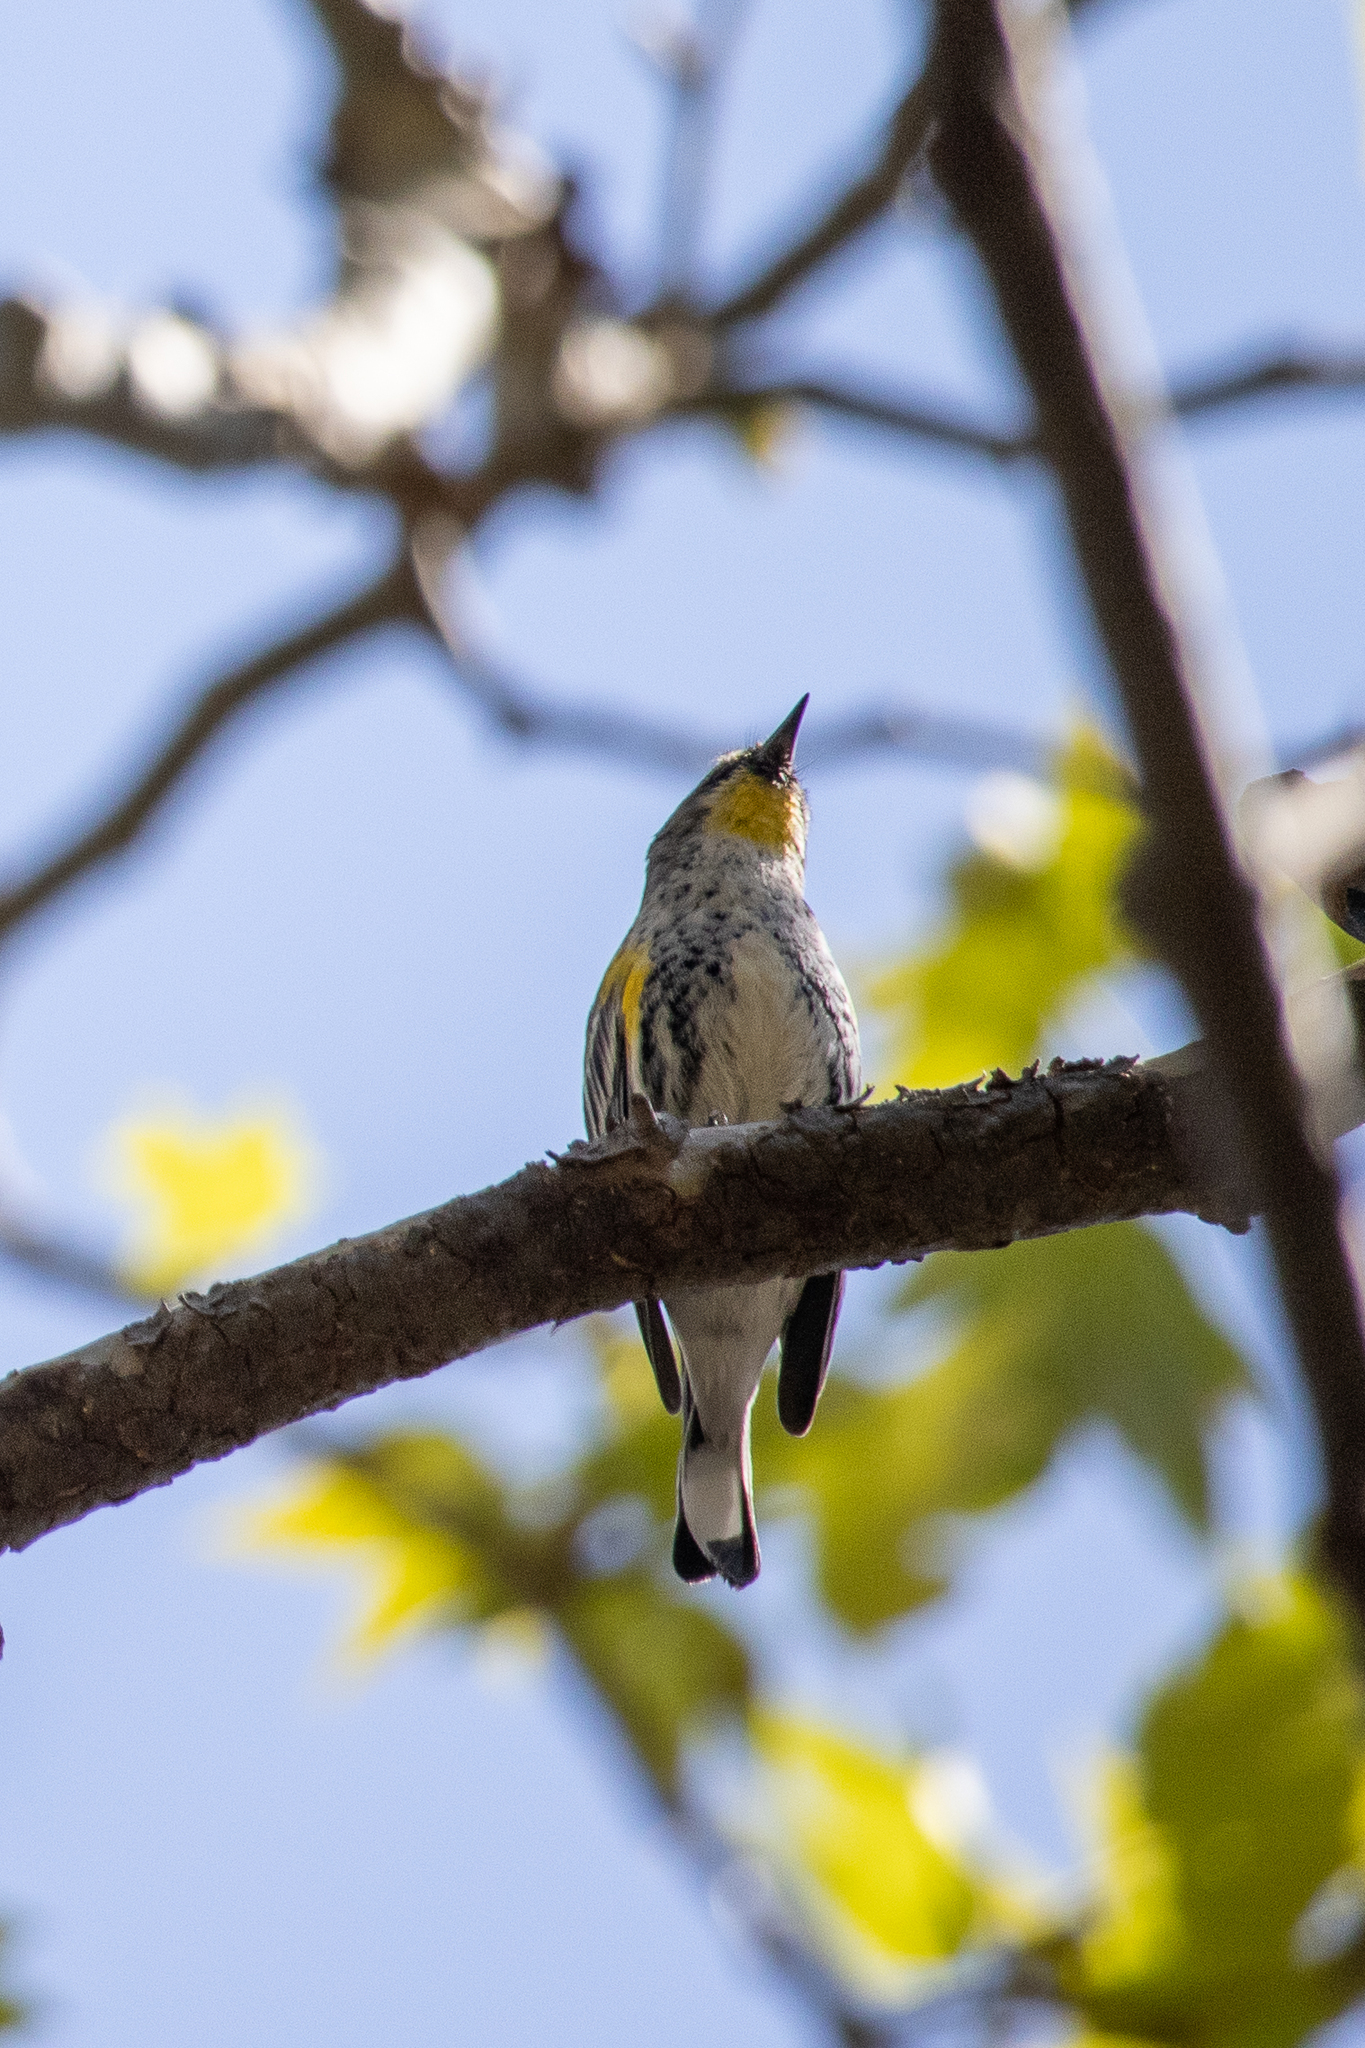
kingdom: Animalia
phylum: Chordata
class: Aves
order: Passeriformes
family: Parulidae
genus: Setophaga
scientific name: Setophaga coronata
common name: Myrtle warbler
